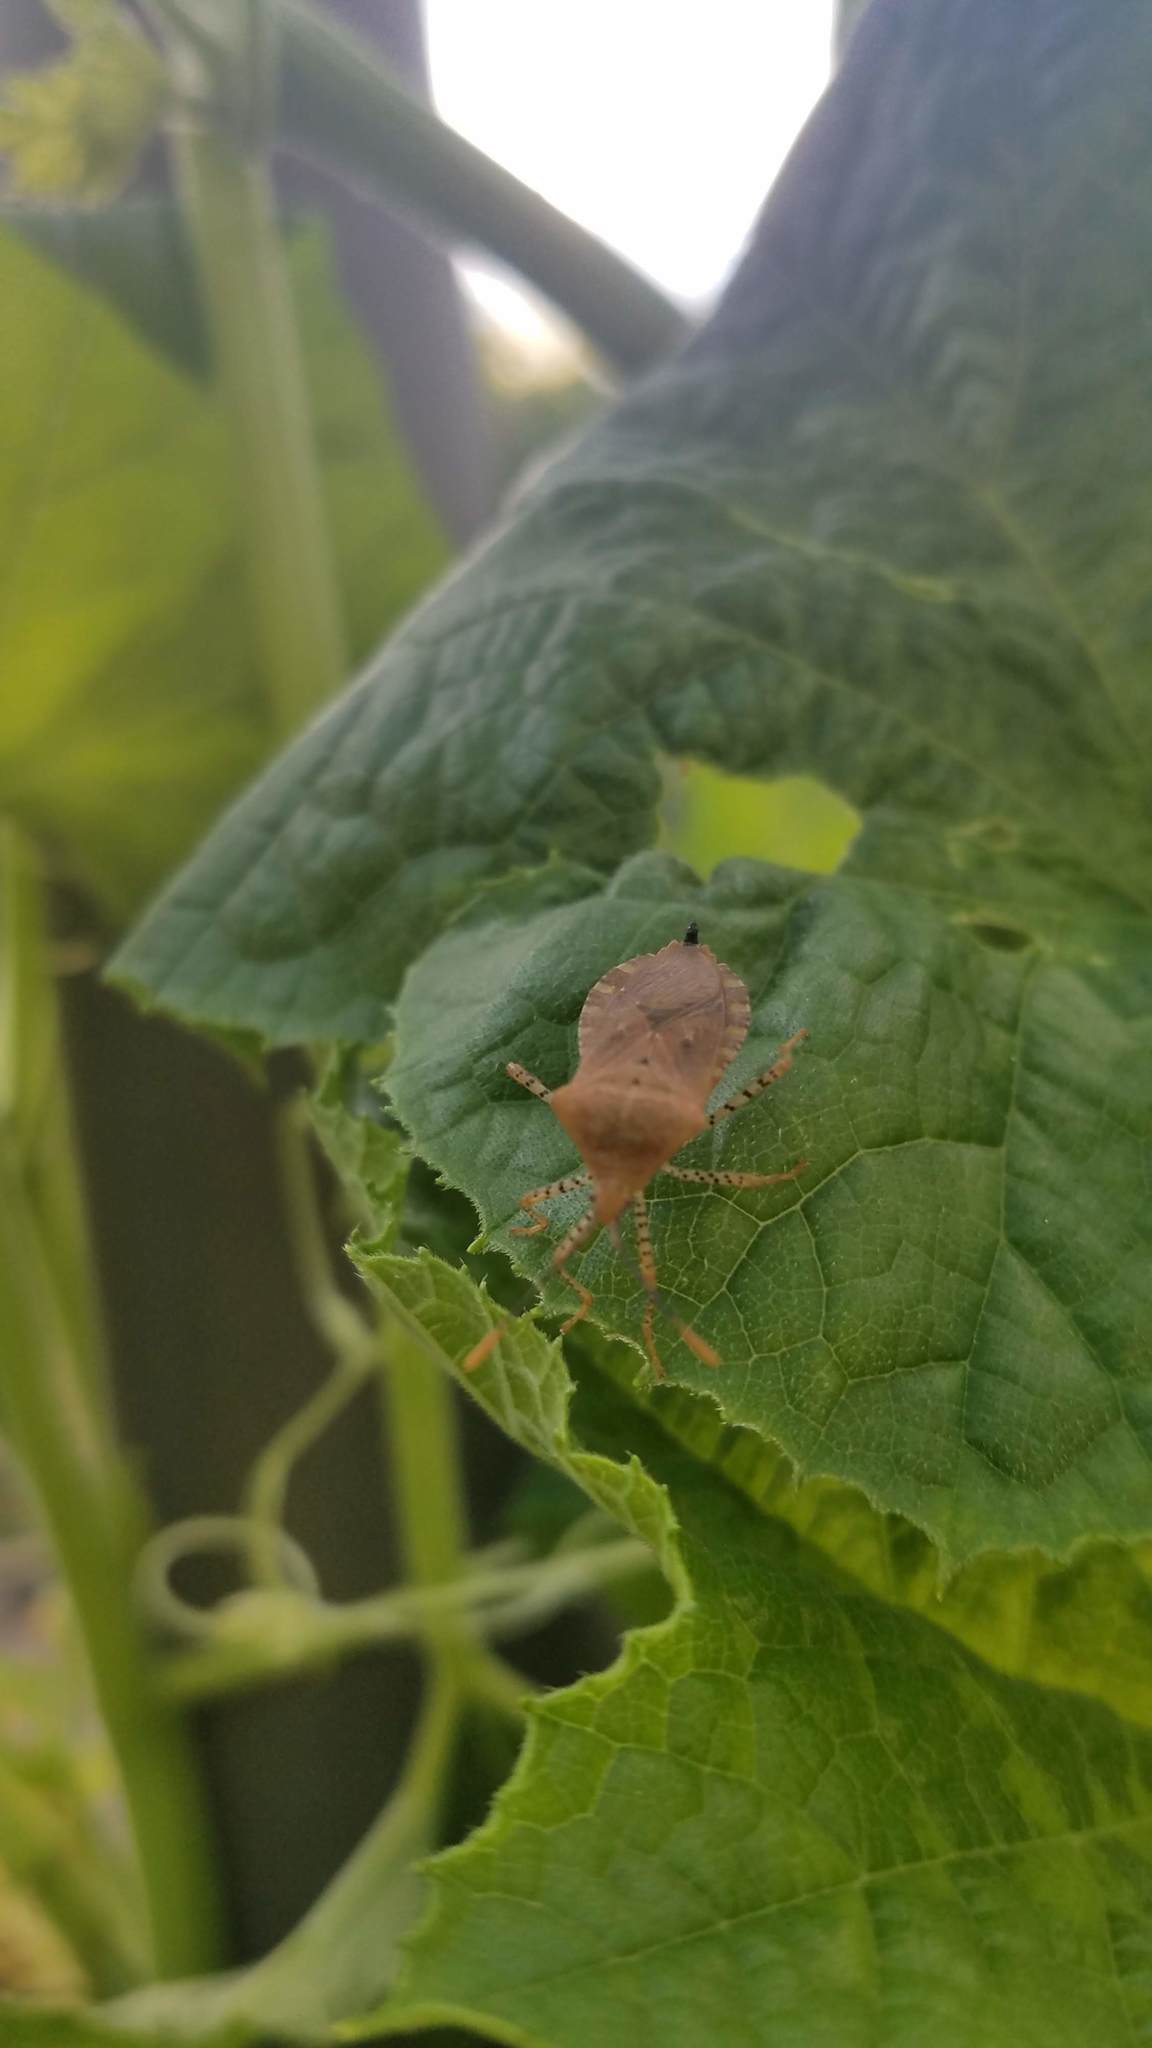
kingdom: Animalia
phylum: Arthropoda
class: Insecta
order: Hemiptera
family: Coreidae
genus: Anasa
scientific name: Anasa repetita
